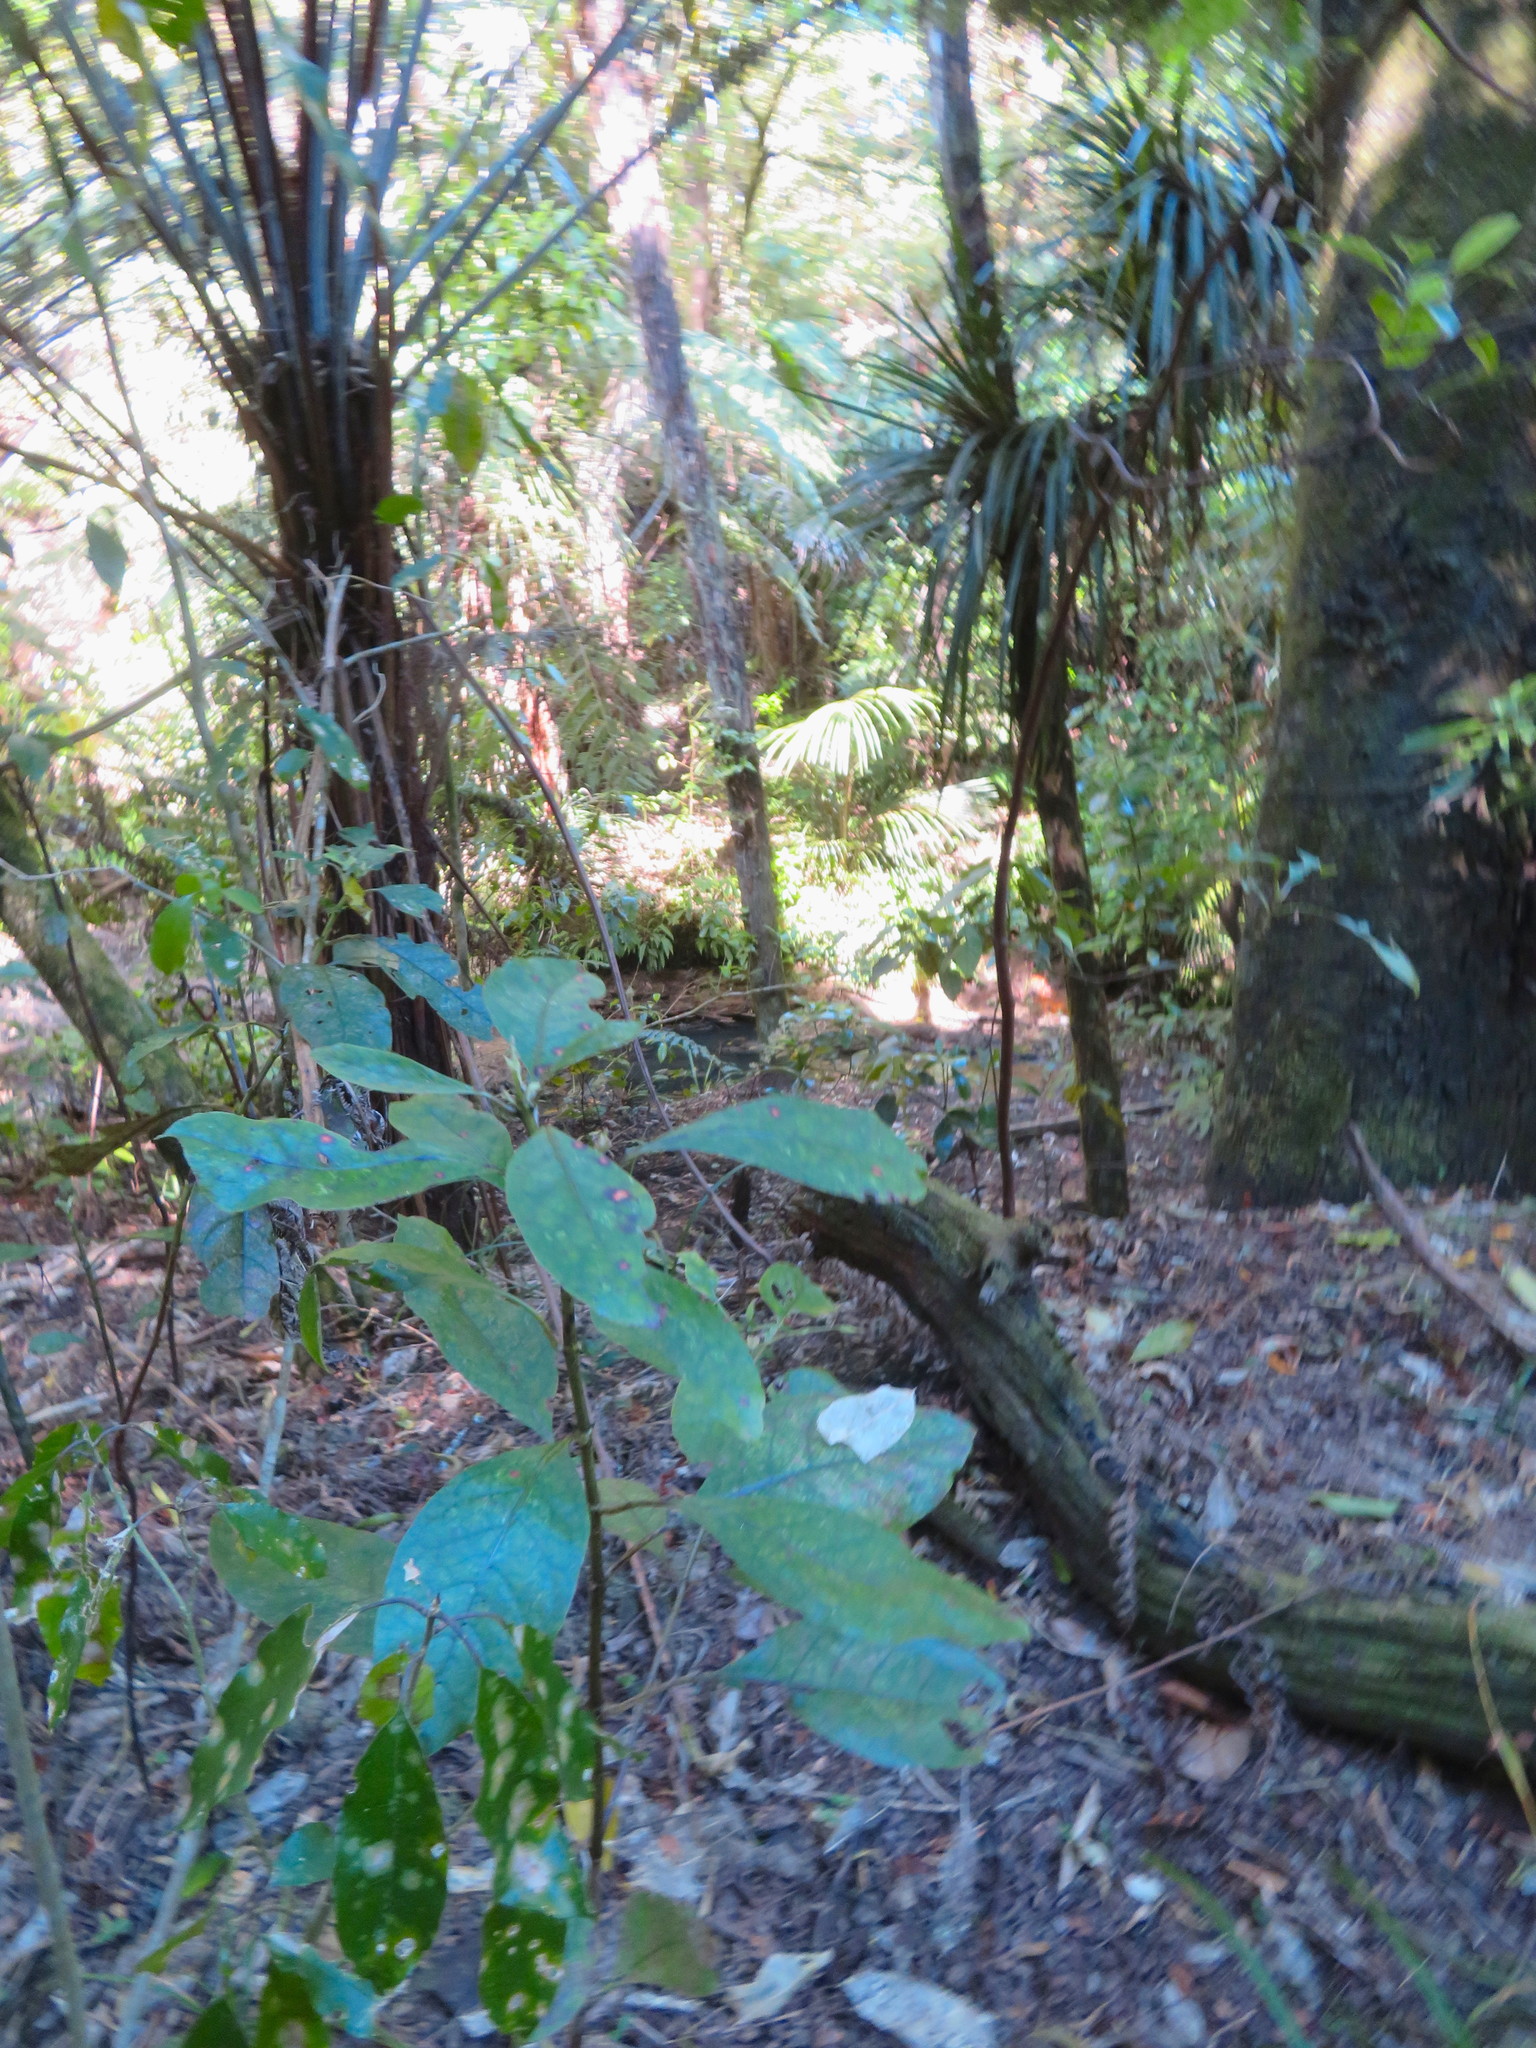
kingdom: Plantae
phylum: Tracheophyta
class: Magnoliopsida
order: Gentianales
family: Rubiaceae
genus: Coprosma
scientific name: Coprosma autumnalis
